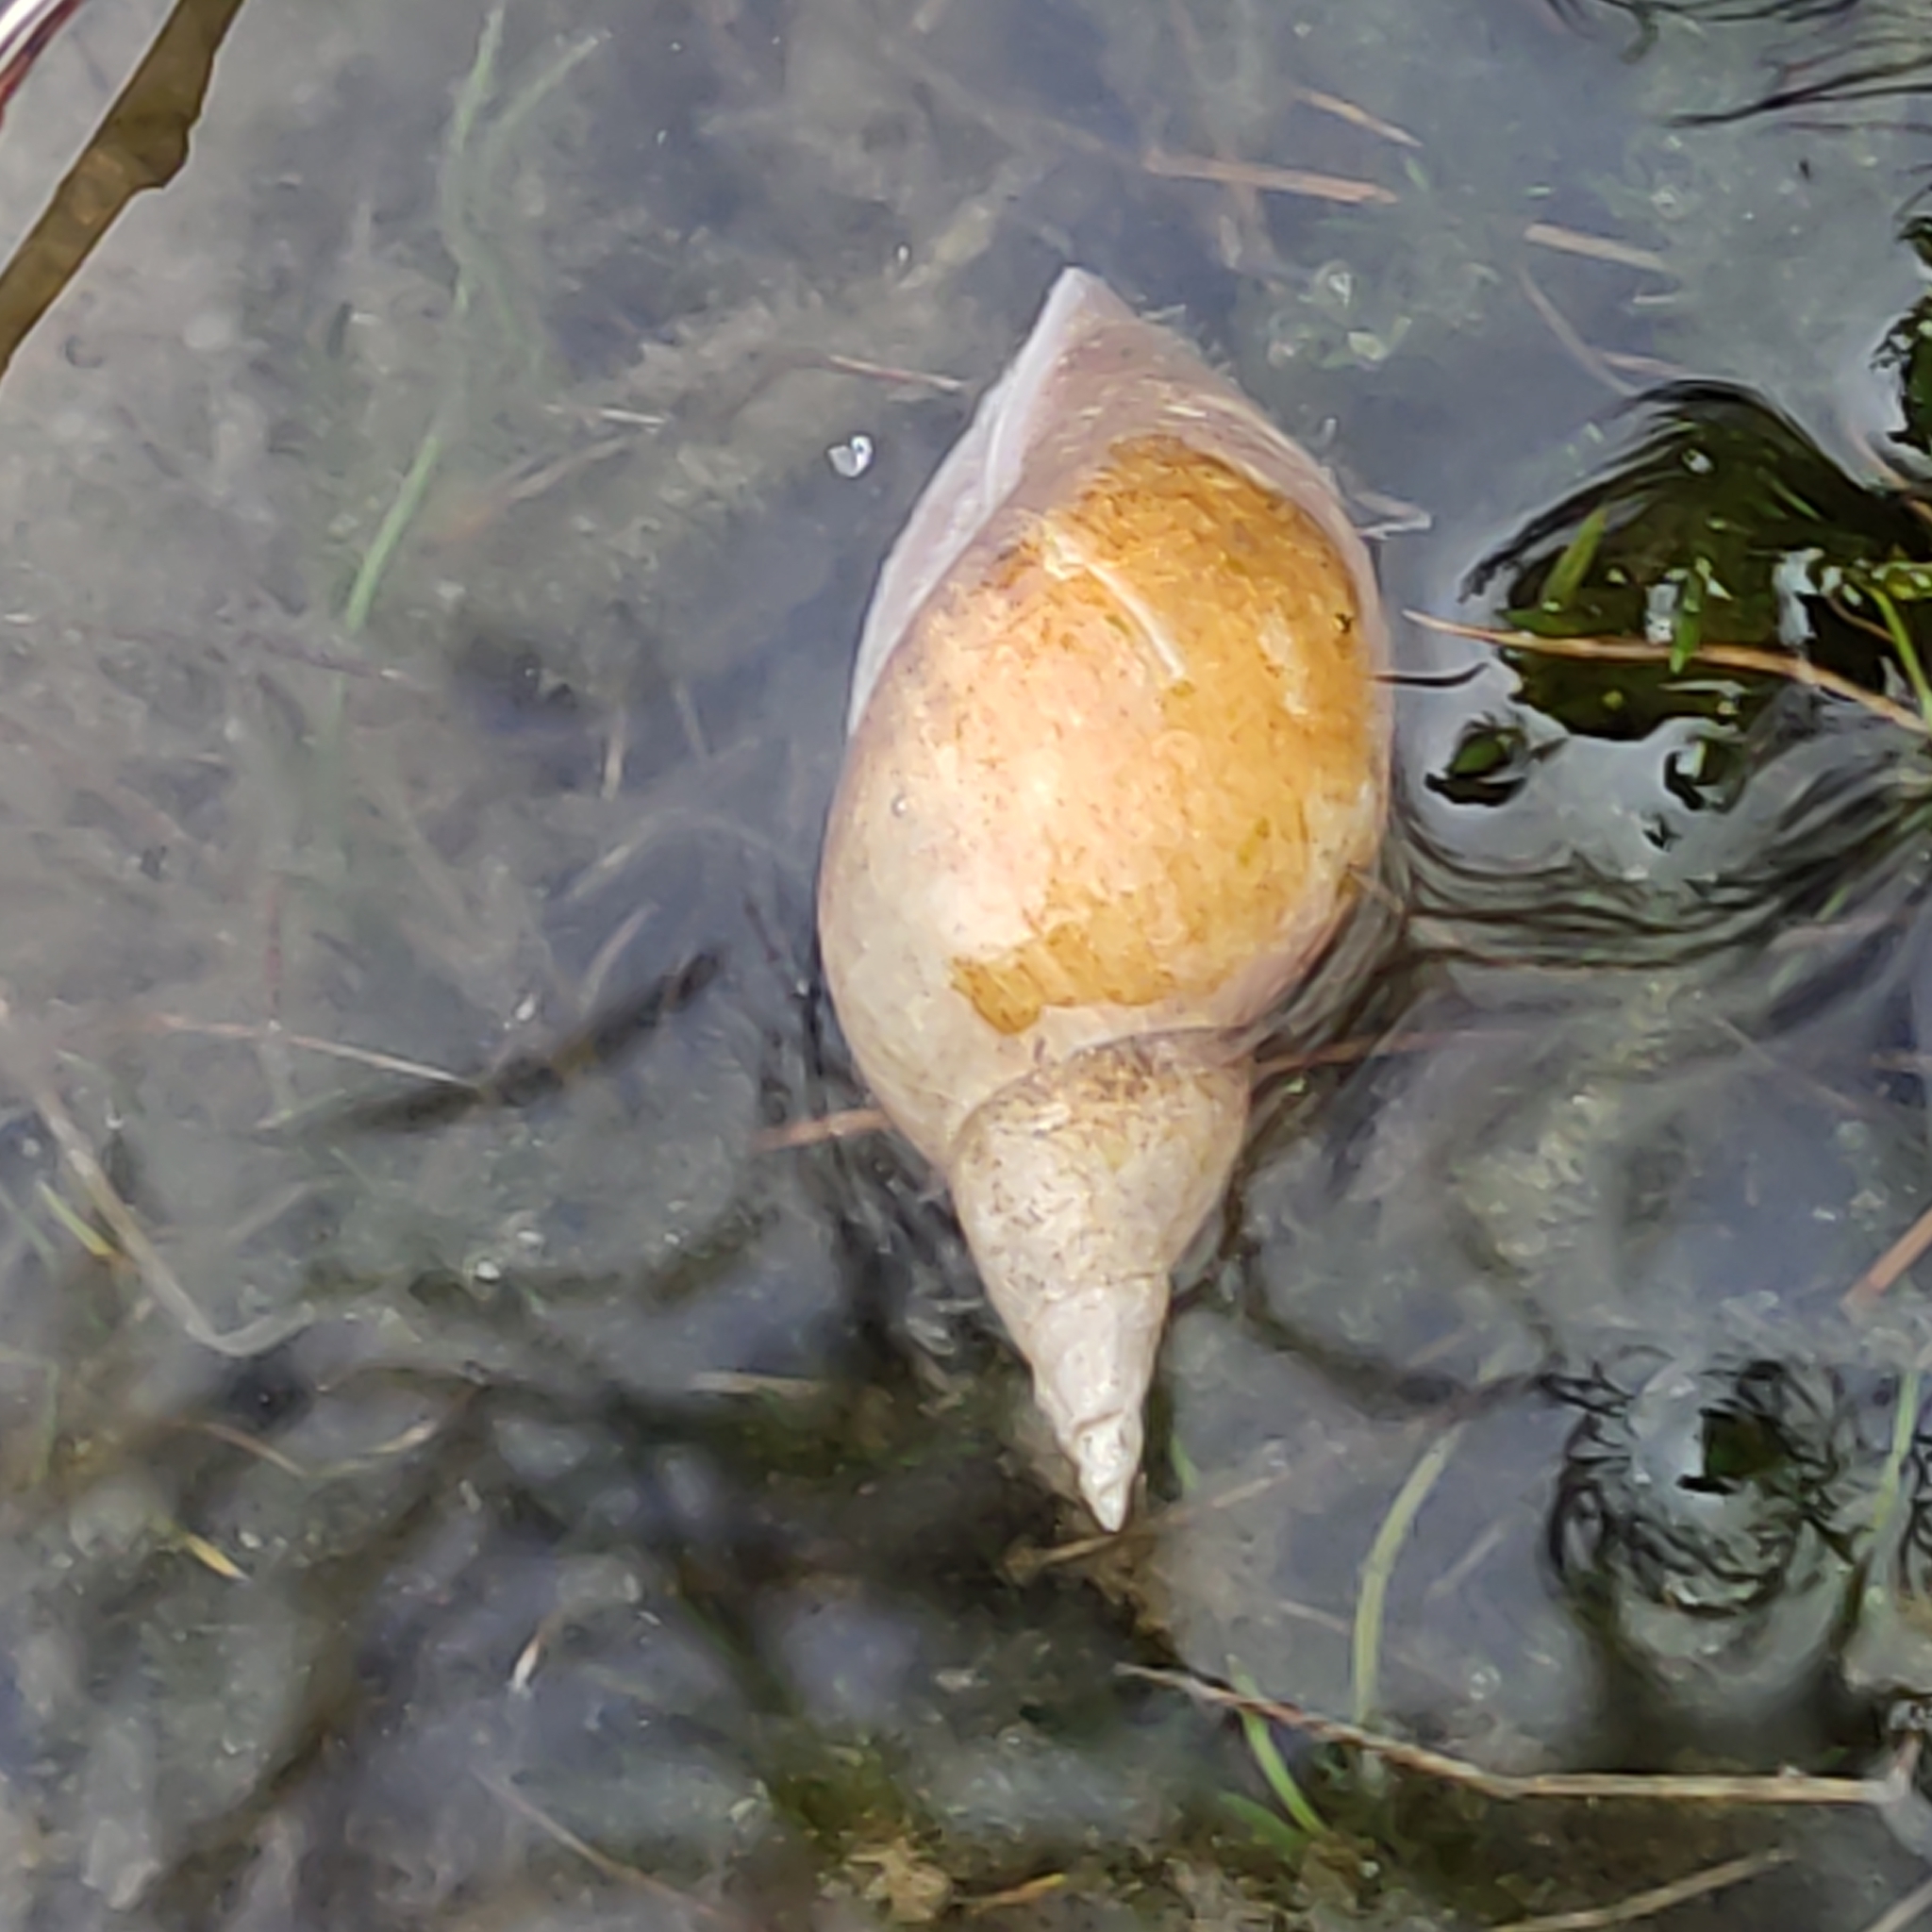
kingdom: Animalia
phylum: Mollusca
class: Gastropoda
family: Lymnaeidae
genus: Lymnaea
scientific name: Lymnaea stagnalis
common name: Great pond snail
